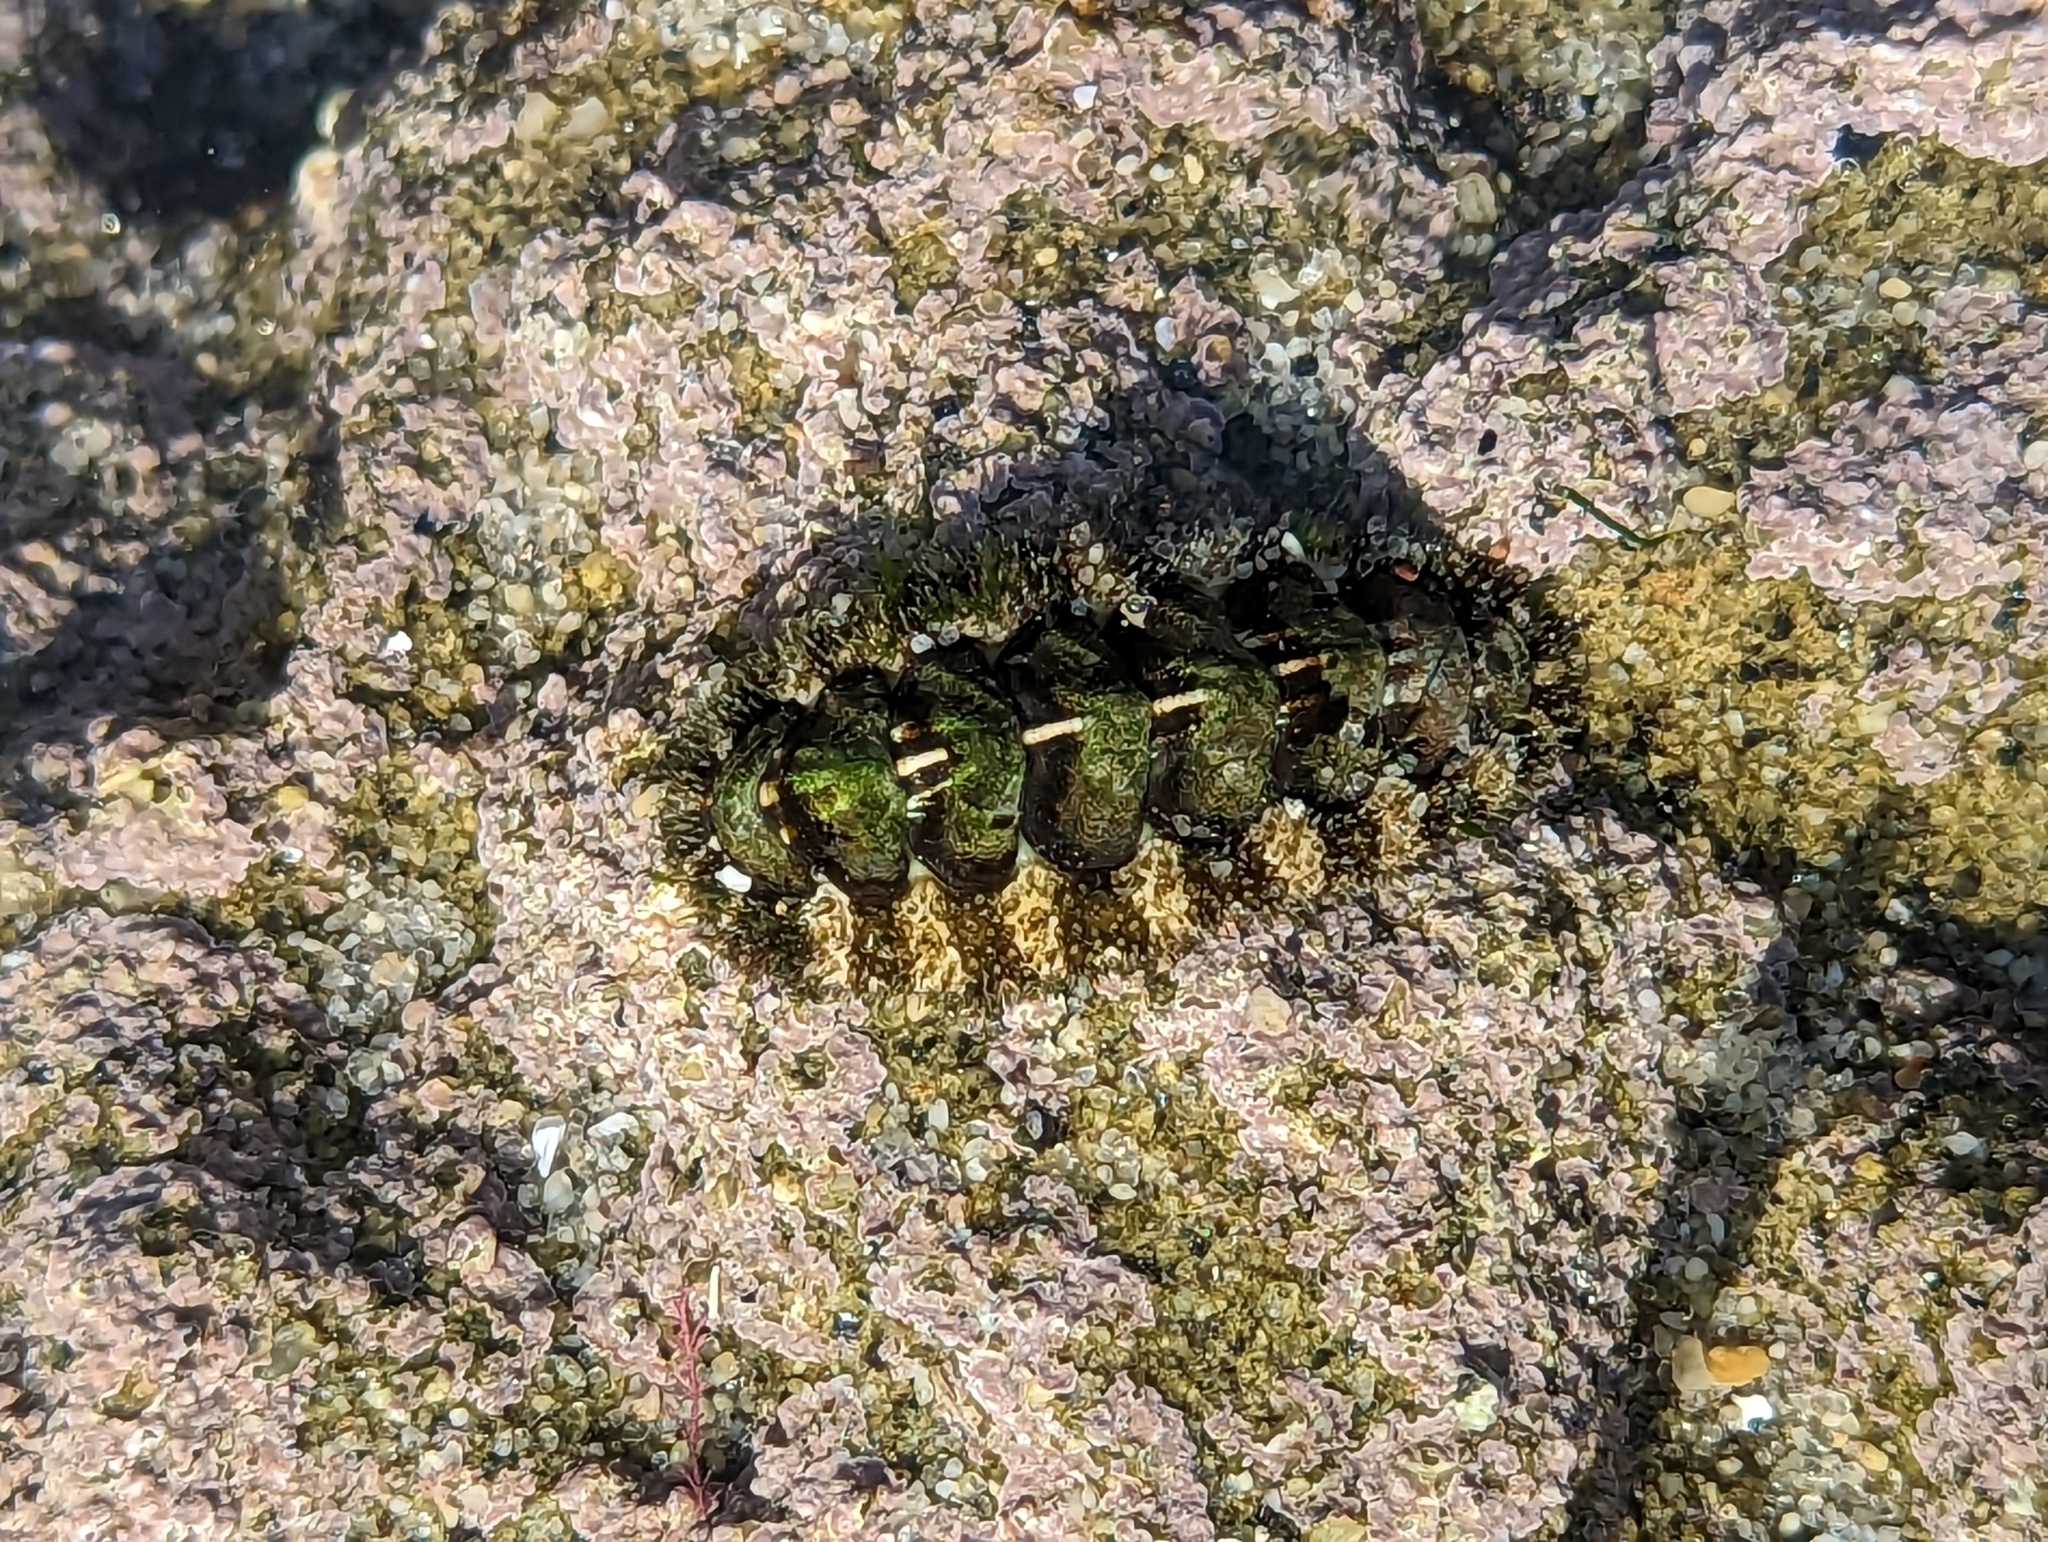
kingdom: Animalia
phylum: Mollusca
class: Polyplacophora
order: Chitonida
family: Tonicellidae
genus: Nuttallina
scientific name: Nuttallina californica
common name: California nuttall chiton
